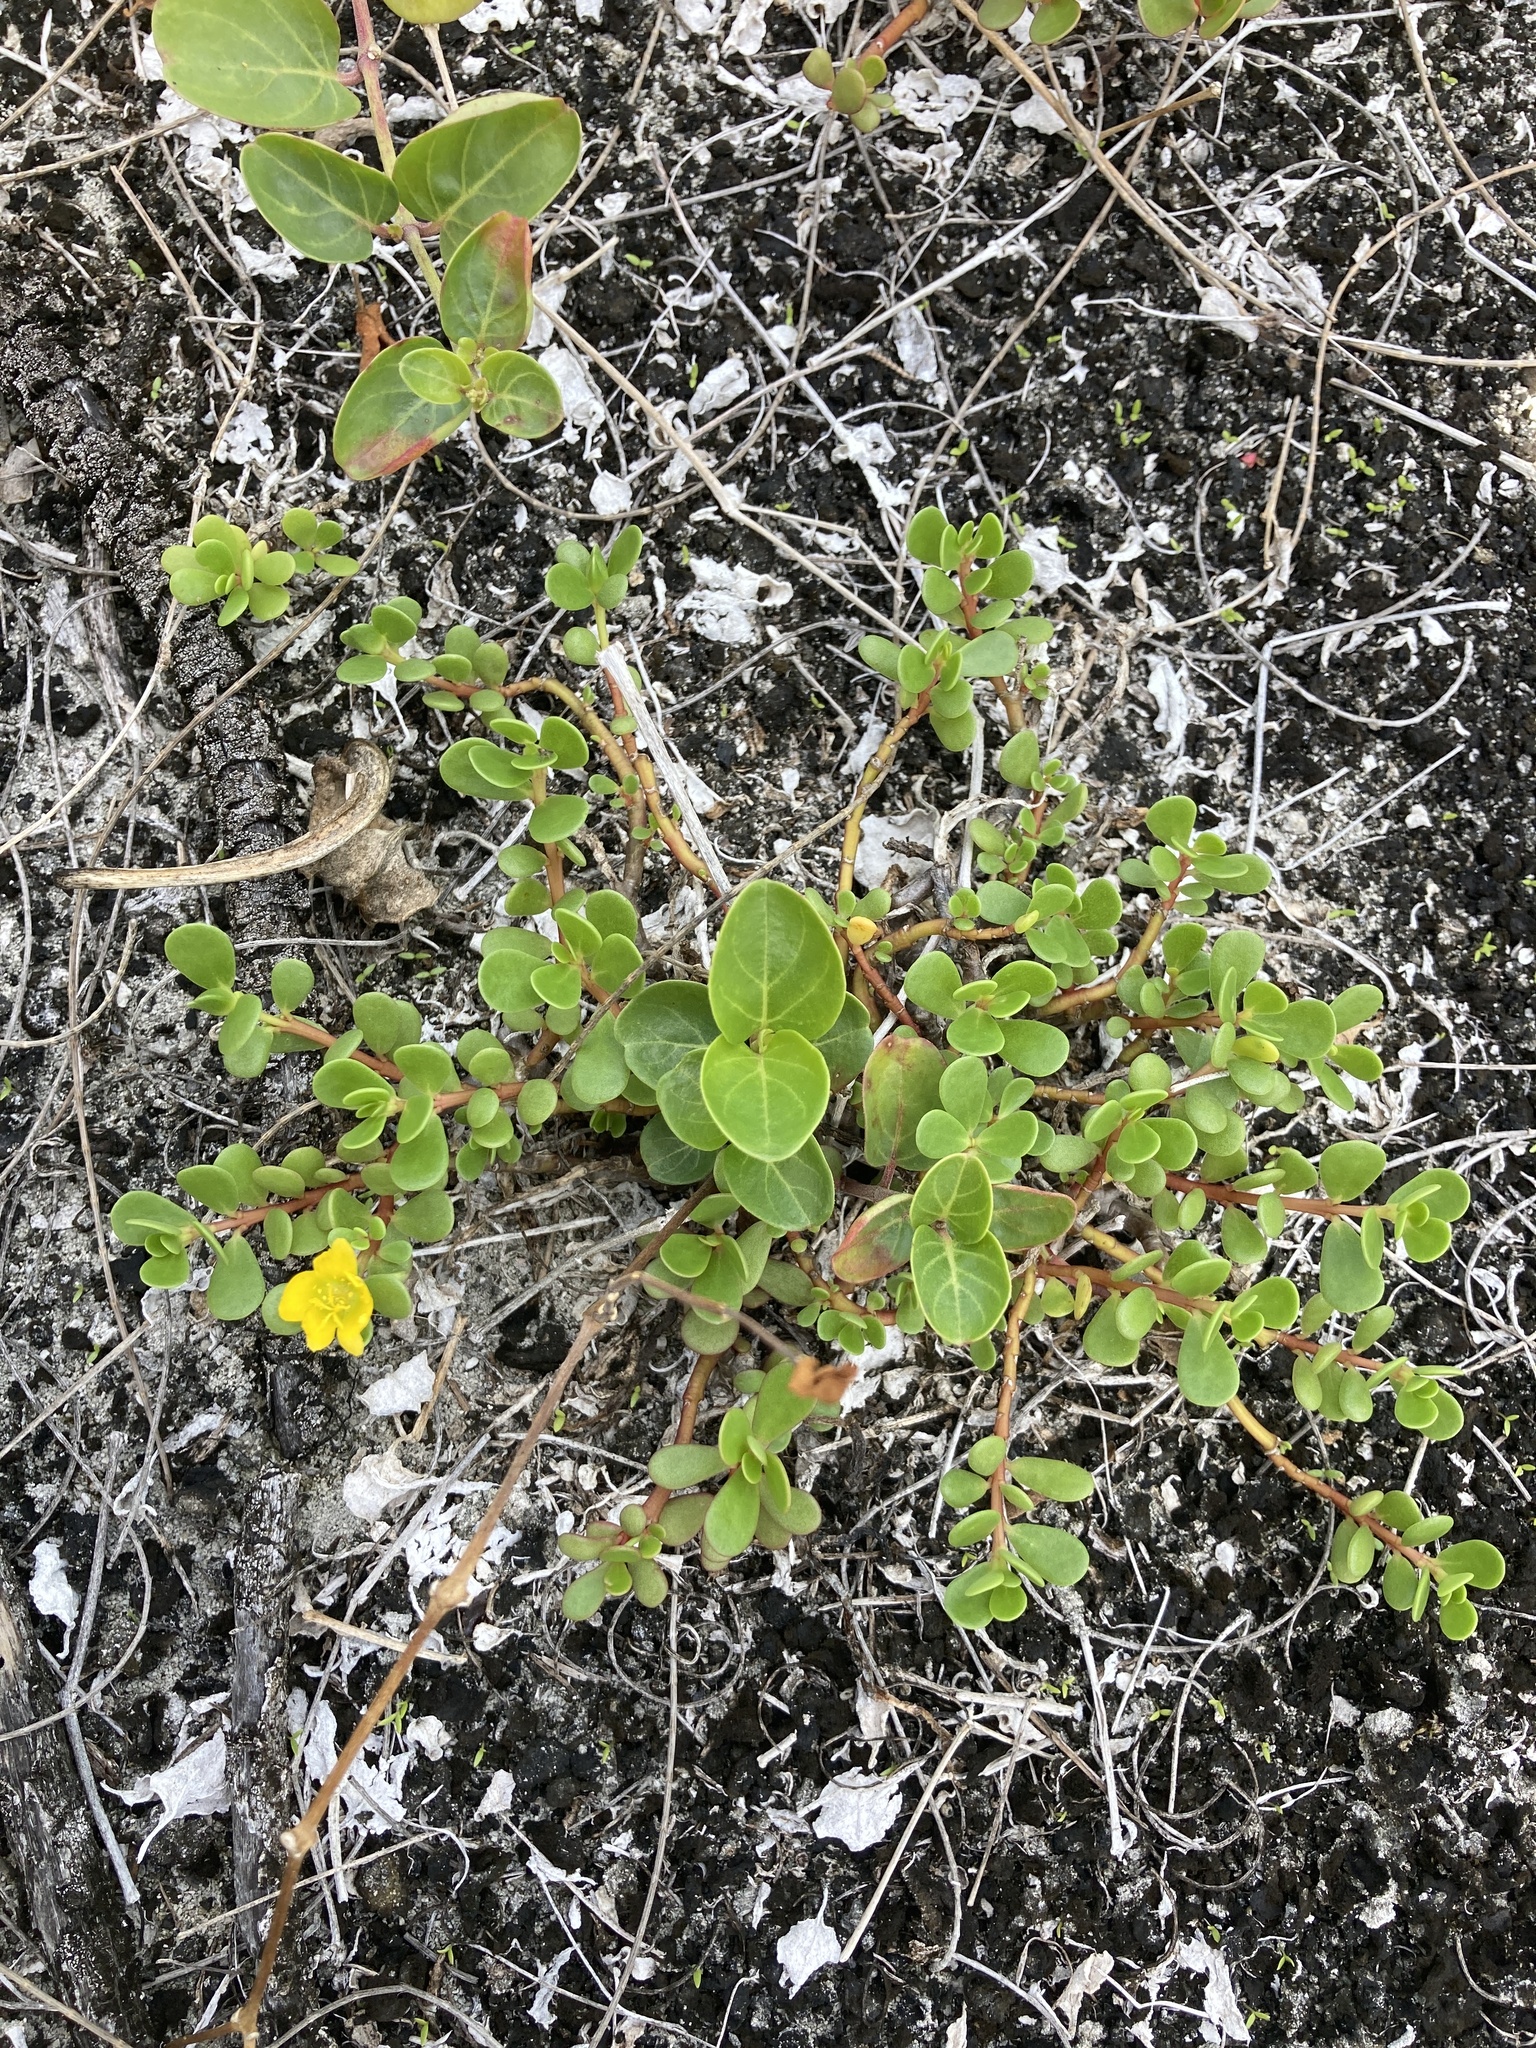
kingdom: Plantae
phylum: Tracheophyta
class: Magnoliopsida
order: Caryophyllales
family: Portulacaceae
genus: Portulaca
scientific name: Portulaca oleracea
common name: Common purslane
